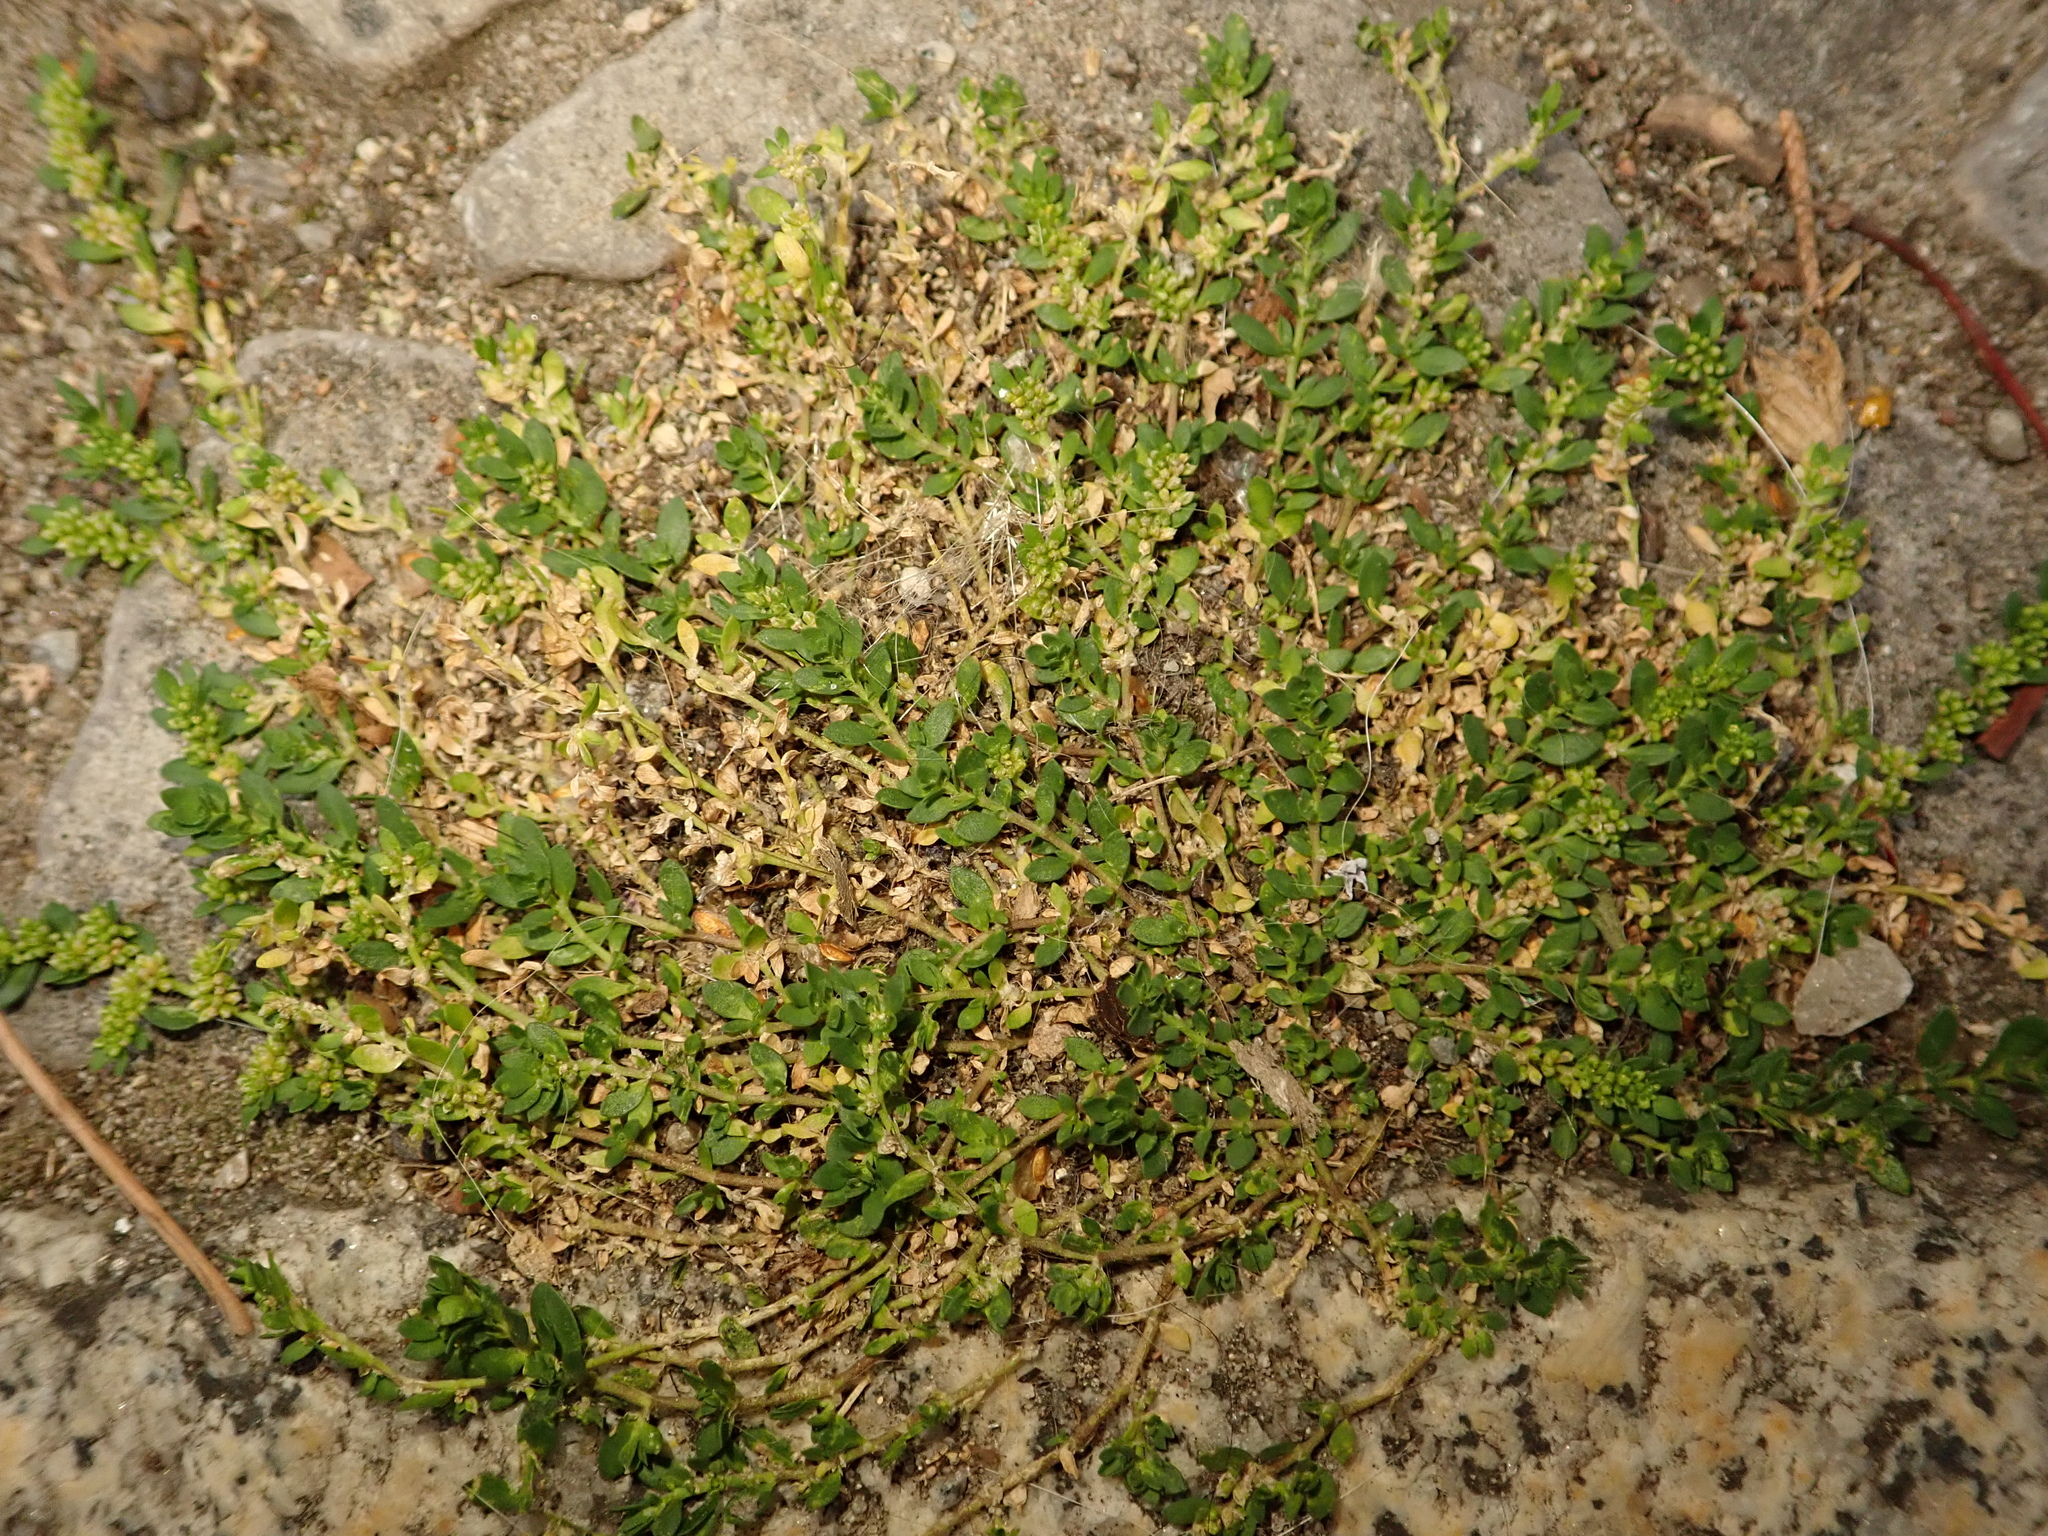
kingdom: Plantae
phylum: Tracheophyta
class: Magnoliopsida
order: Caryophyllales
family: Caryophyllaceae
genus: Herniaria
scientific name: Herniaria glabra
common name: Smooth rupturewort
